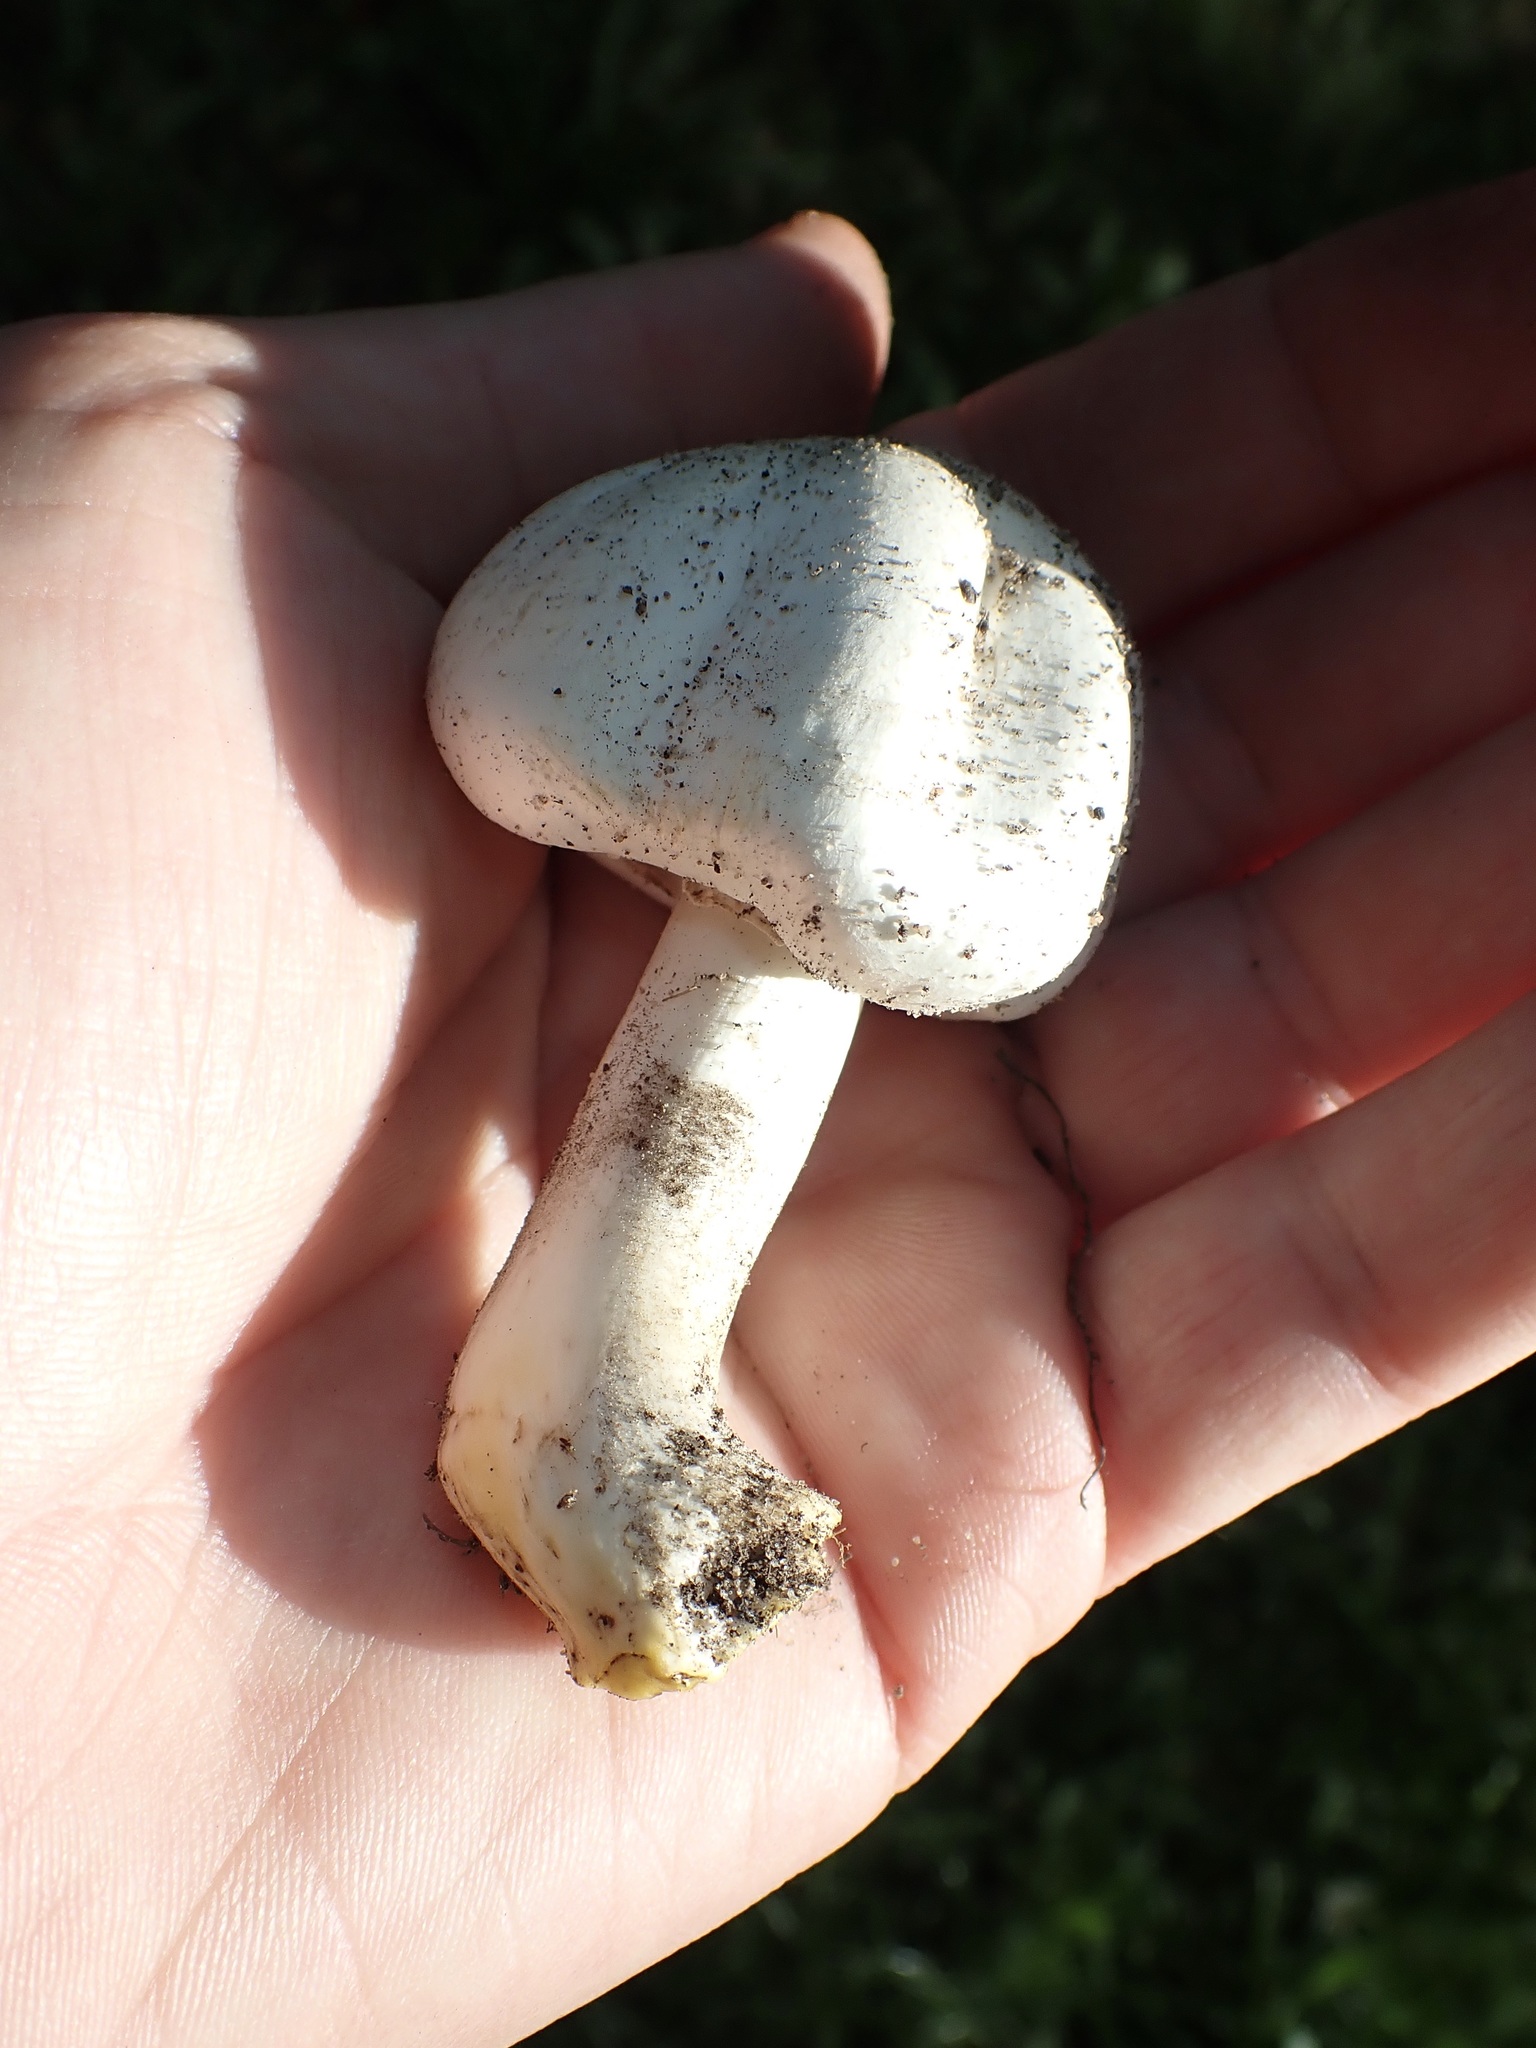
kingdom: Fungi
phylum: Basidiomycota
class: Agaricomycetes
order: Agaricales
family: Agaricaceae
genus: Agaricus
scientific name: Agaricus xanthodermus
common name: Yellow stainer
